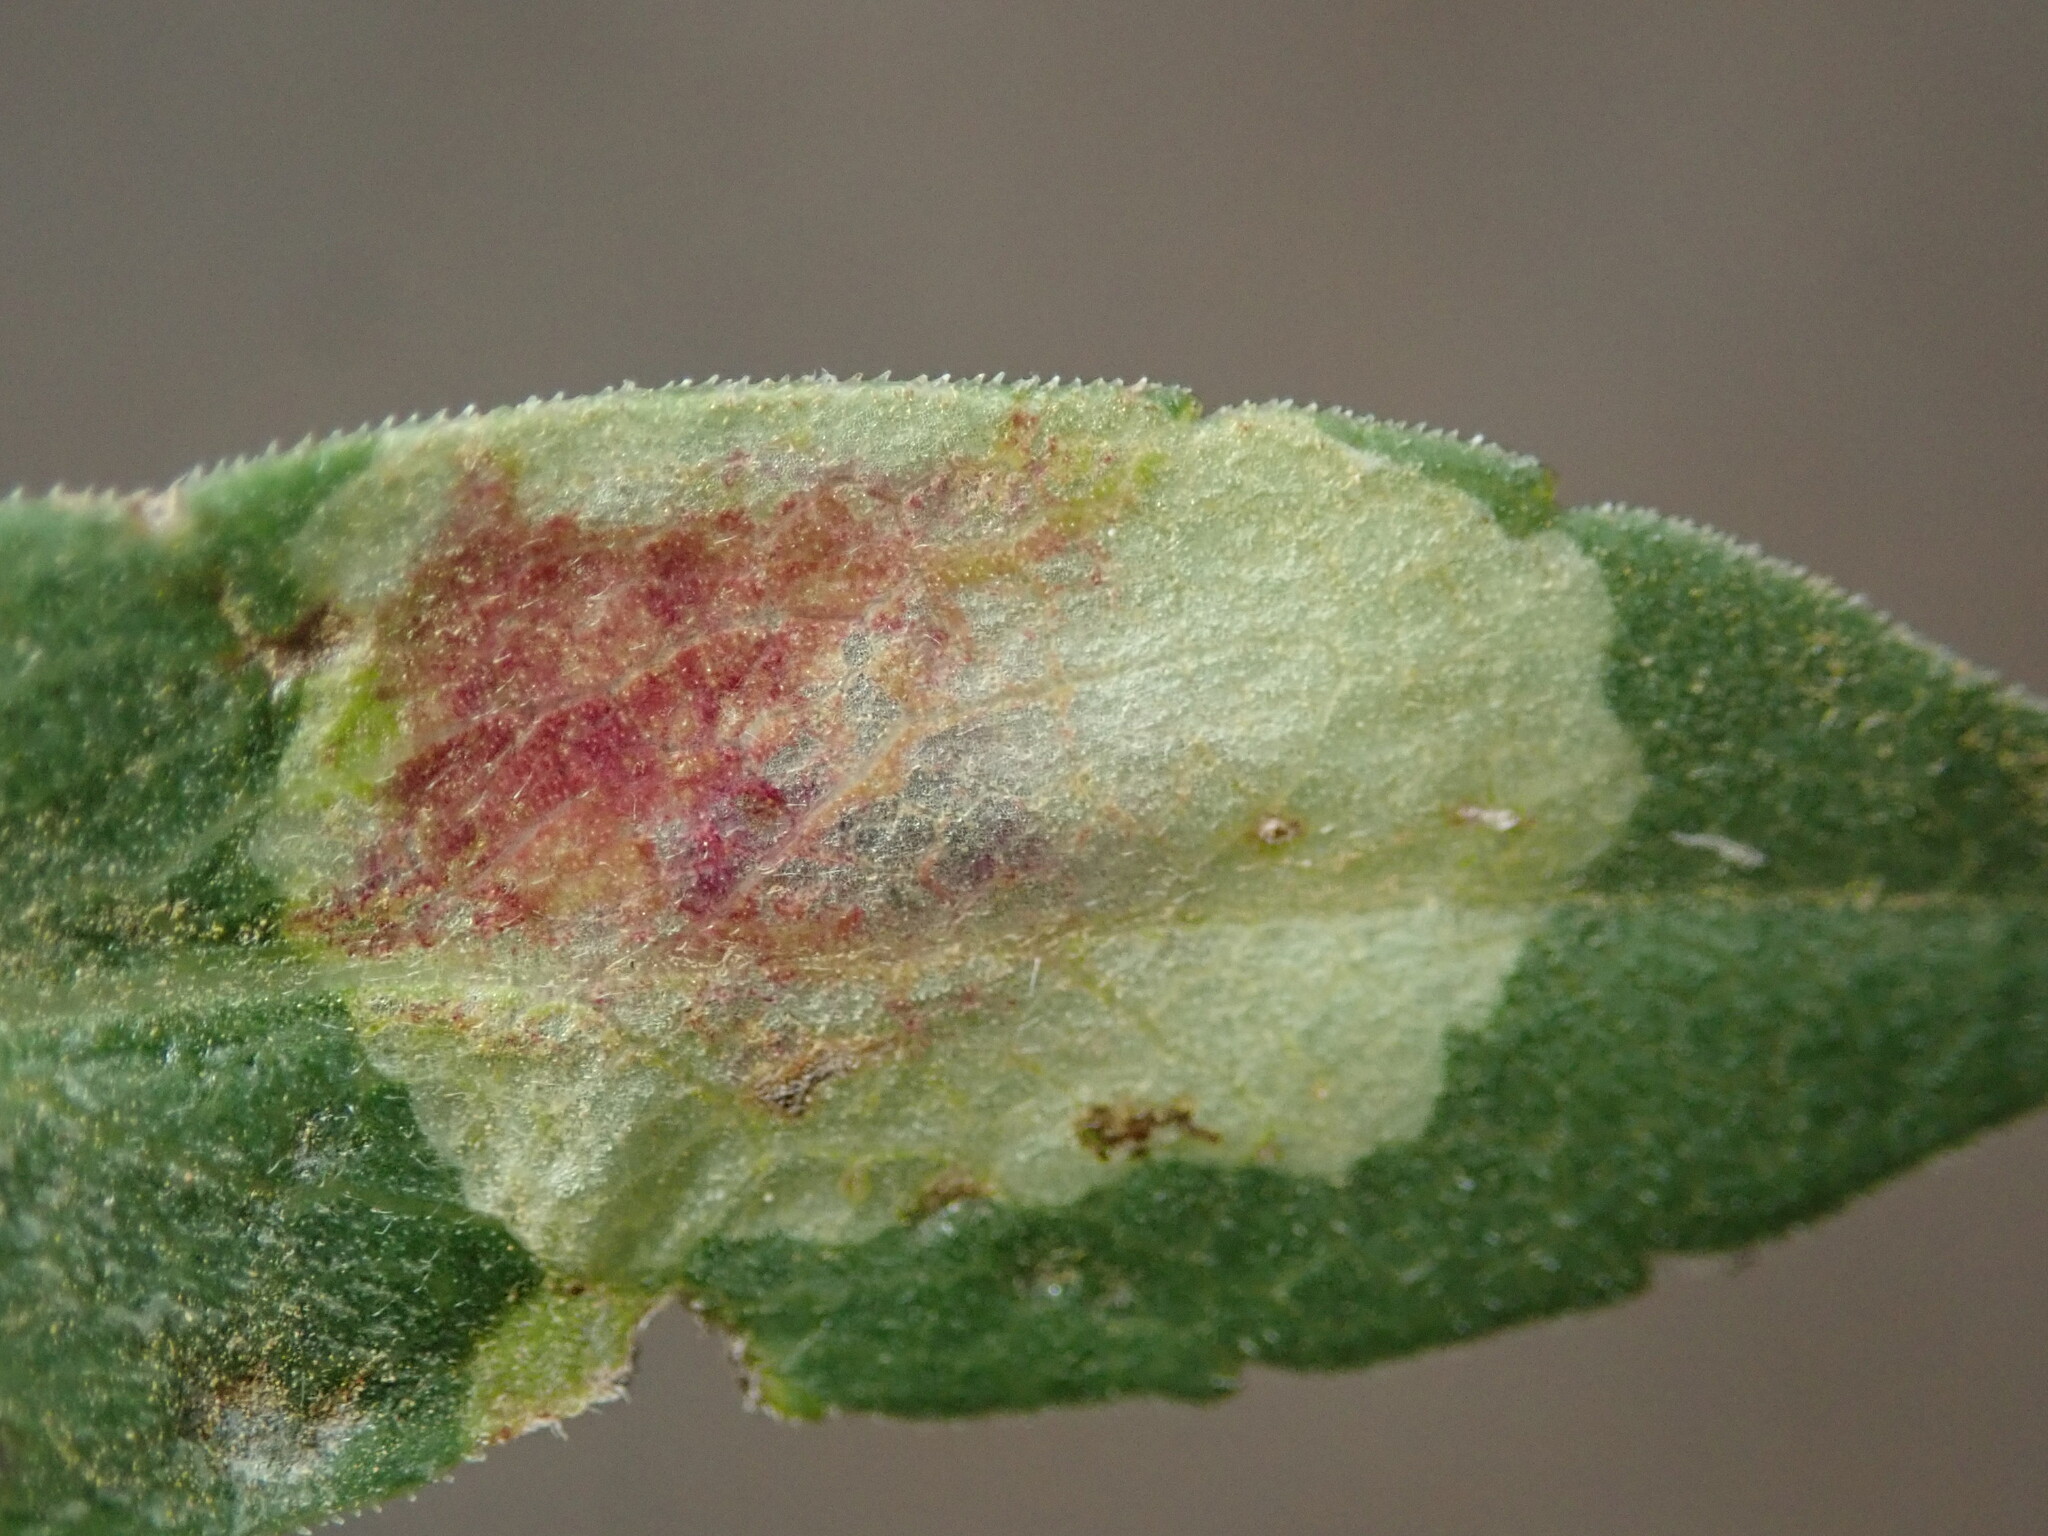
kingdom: Animalia
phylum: Arthropoda
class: Insecta
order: Diptera
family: Agromyzidae
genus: Calycomyza
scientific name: Calycomyza promissa
